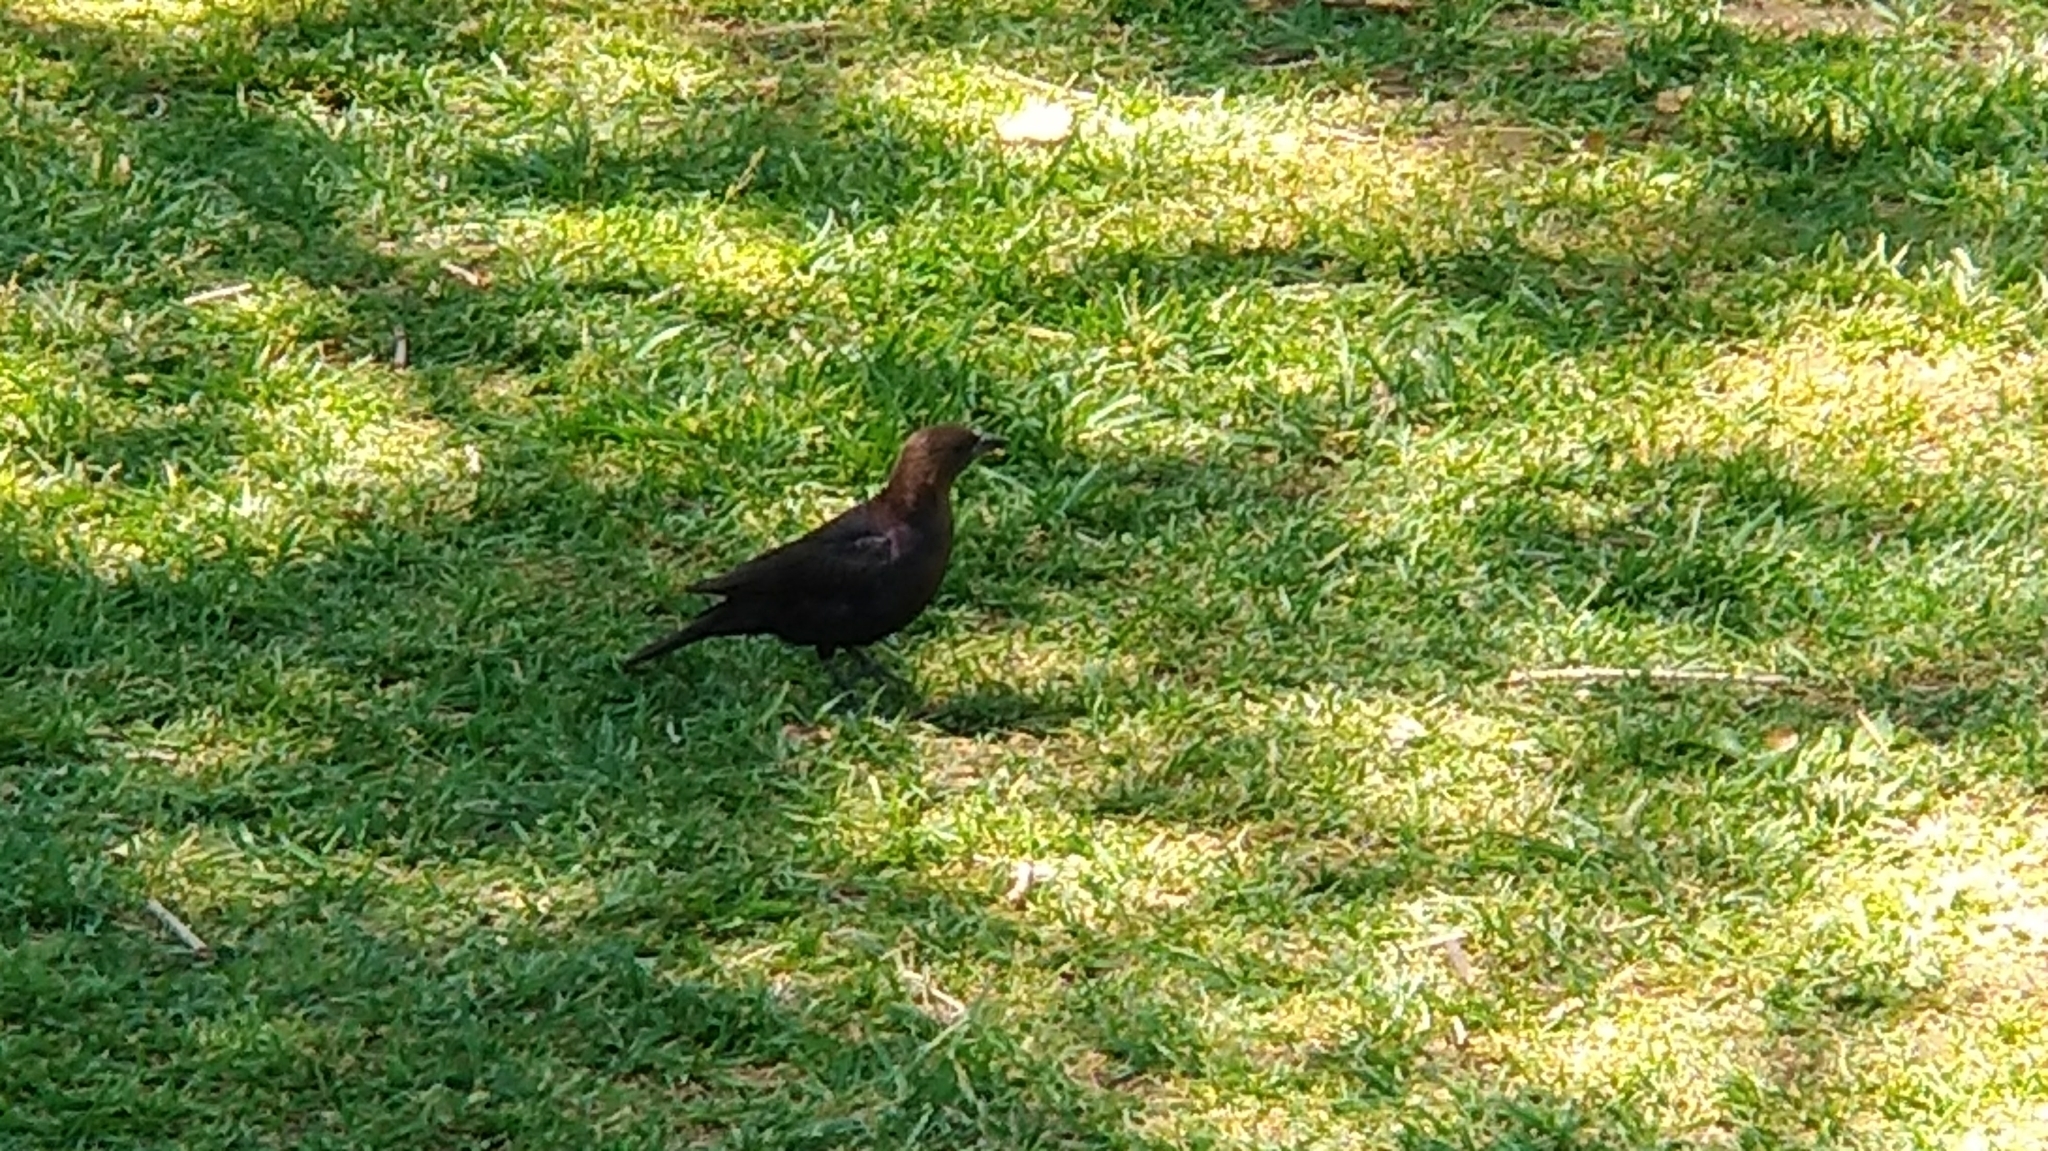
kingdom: Animalia
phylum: Chordata
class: Aves
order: Passeriformes
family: Icteridae
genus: Molothrus
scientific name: Molothrus ater
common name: Brown-headed cowbird
